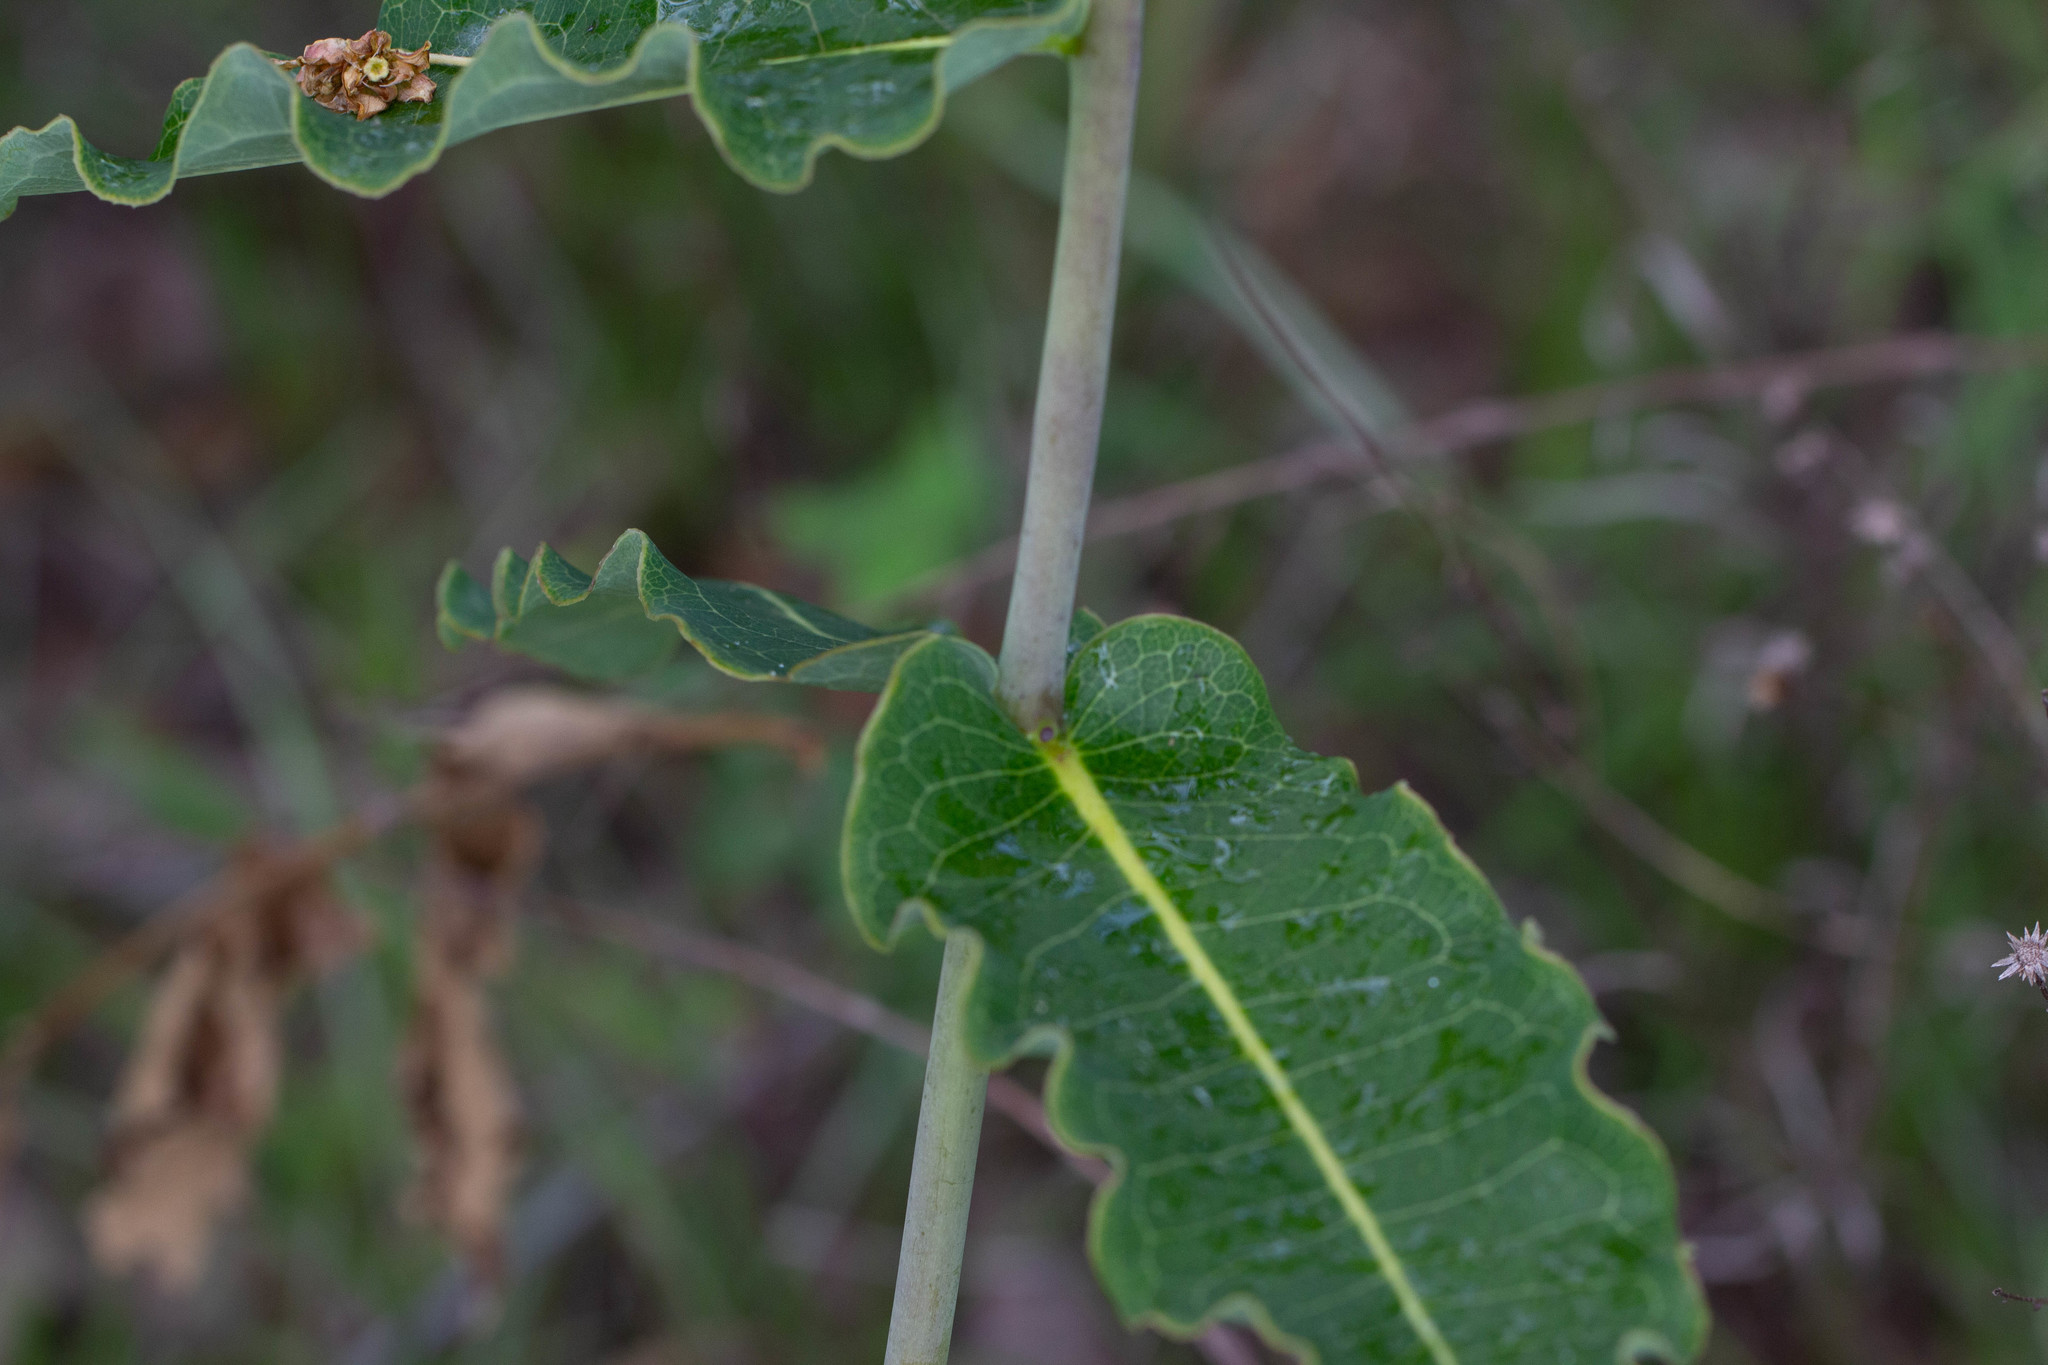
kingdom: Plantae
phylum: Tracheophyta
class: Magnoliopsida
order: Gentianales
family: Apocynaceae
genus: Asclepias
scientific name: Asclepias amplexicaulis
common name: Blunt-leaf milkweed
